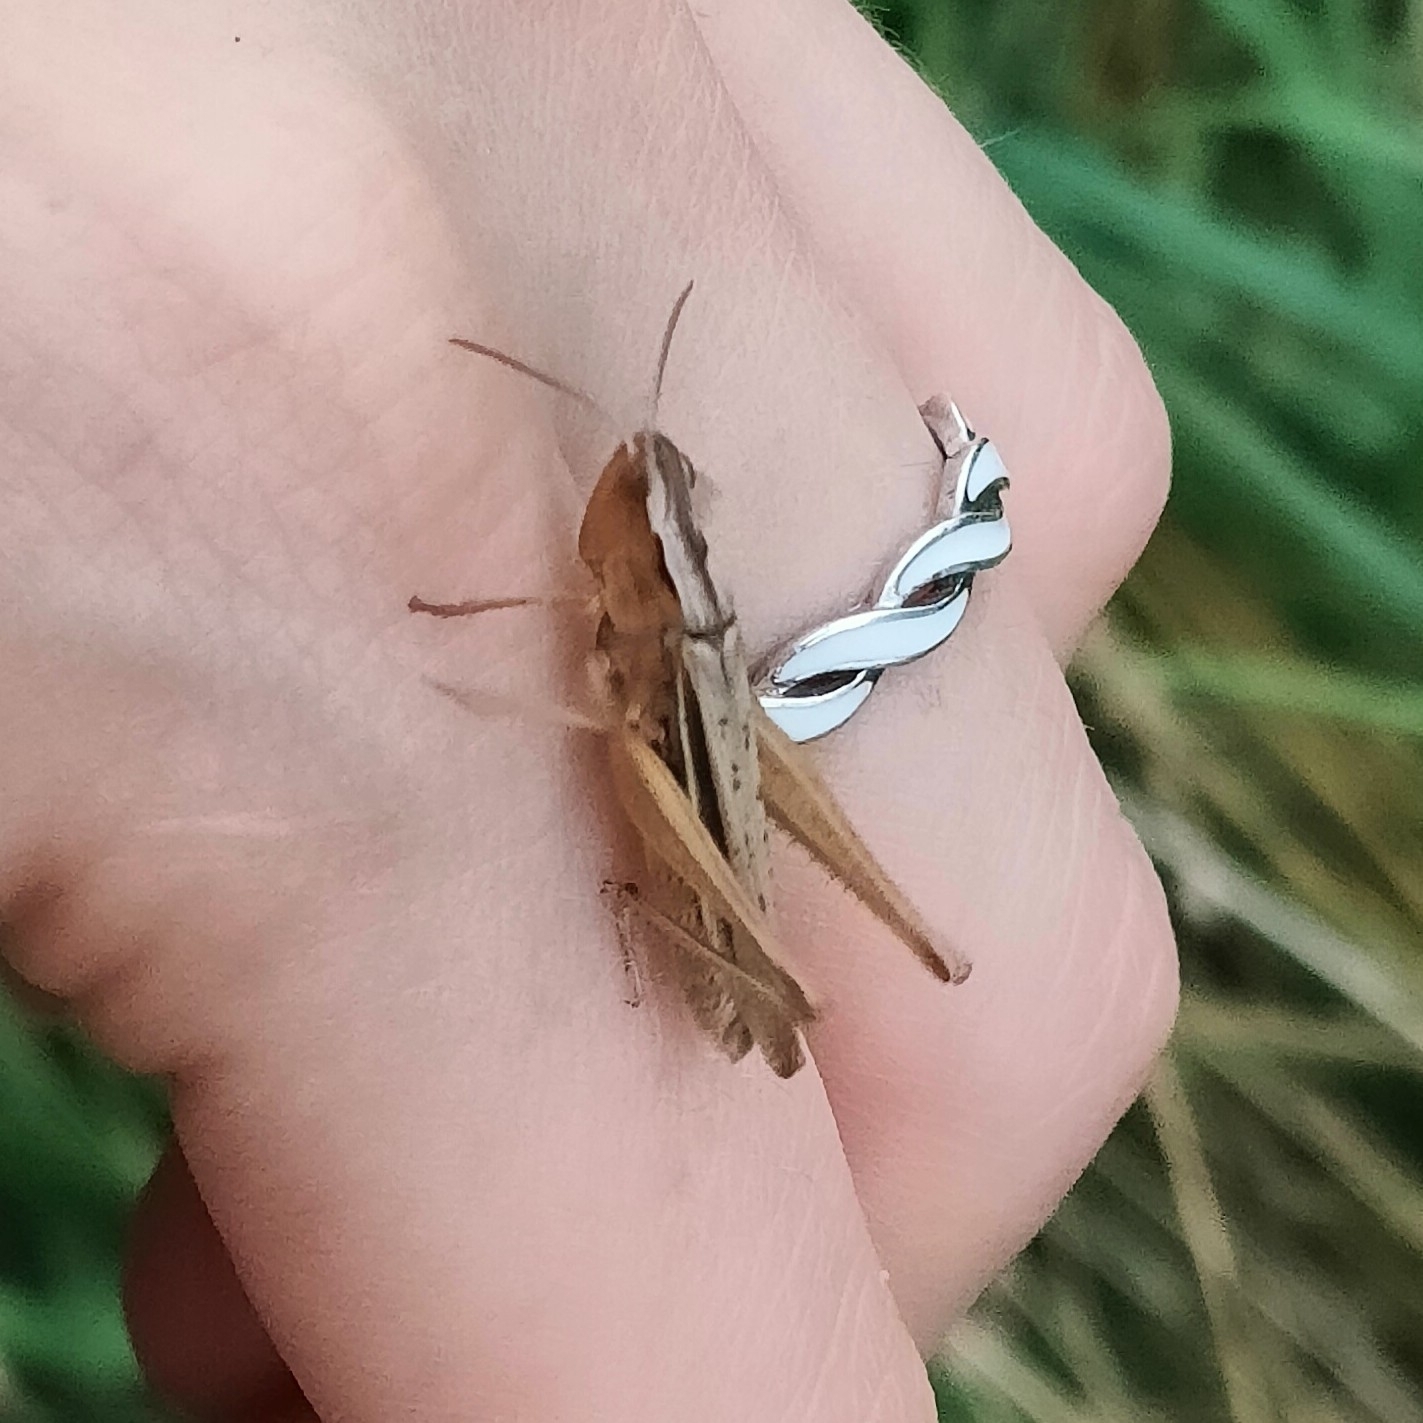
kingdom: Animalia
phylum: Arthropoda
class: Insecta
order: Orthoptera
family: Acrididae
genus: Chorthippus
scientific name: Chorthippus albomarginatus
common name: Lesser marsh grasshopper
